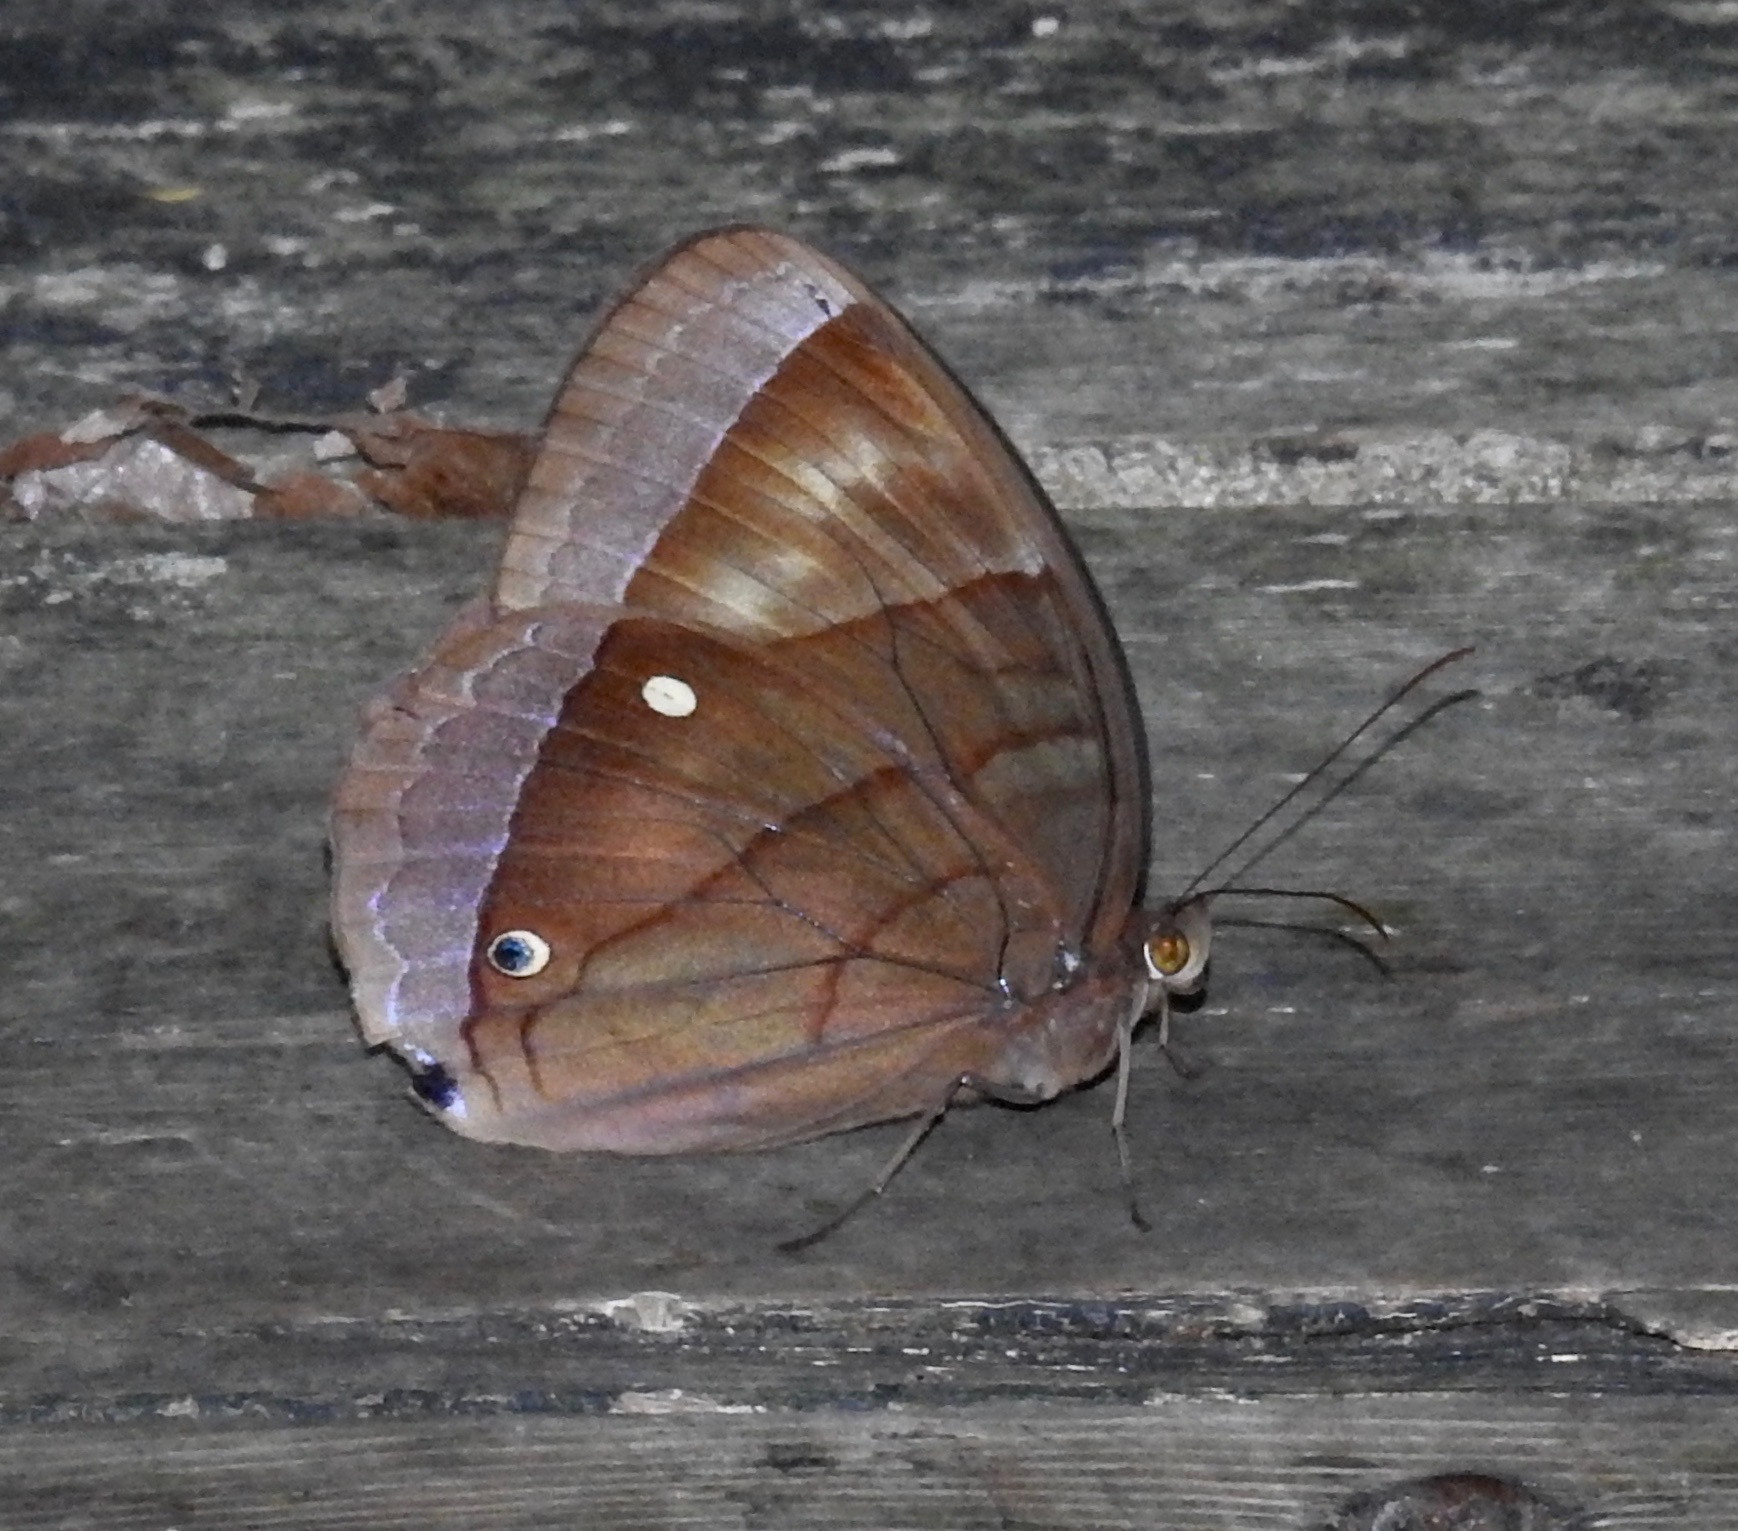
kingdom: Animalia
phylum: Arthropoda
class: Insecta
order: Lepidoptera
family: Nymphalidae
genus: Thaumantis
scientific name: Thaumantis diores
